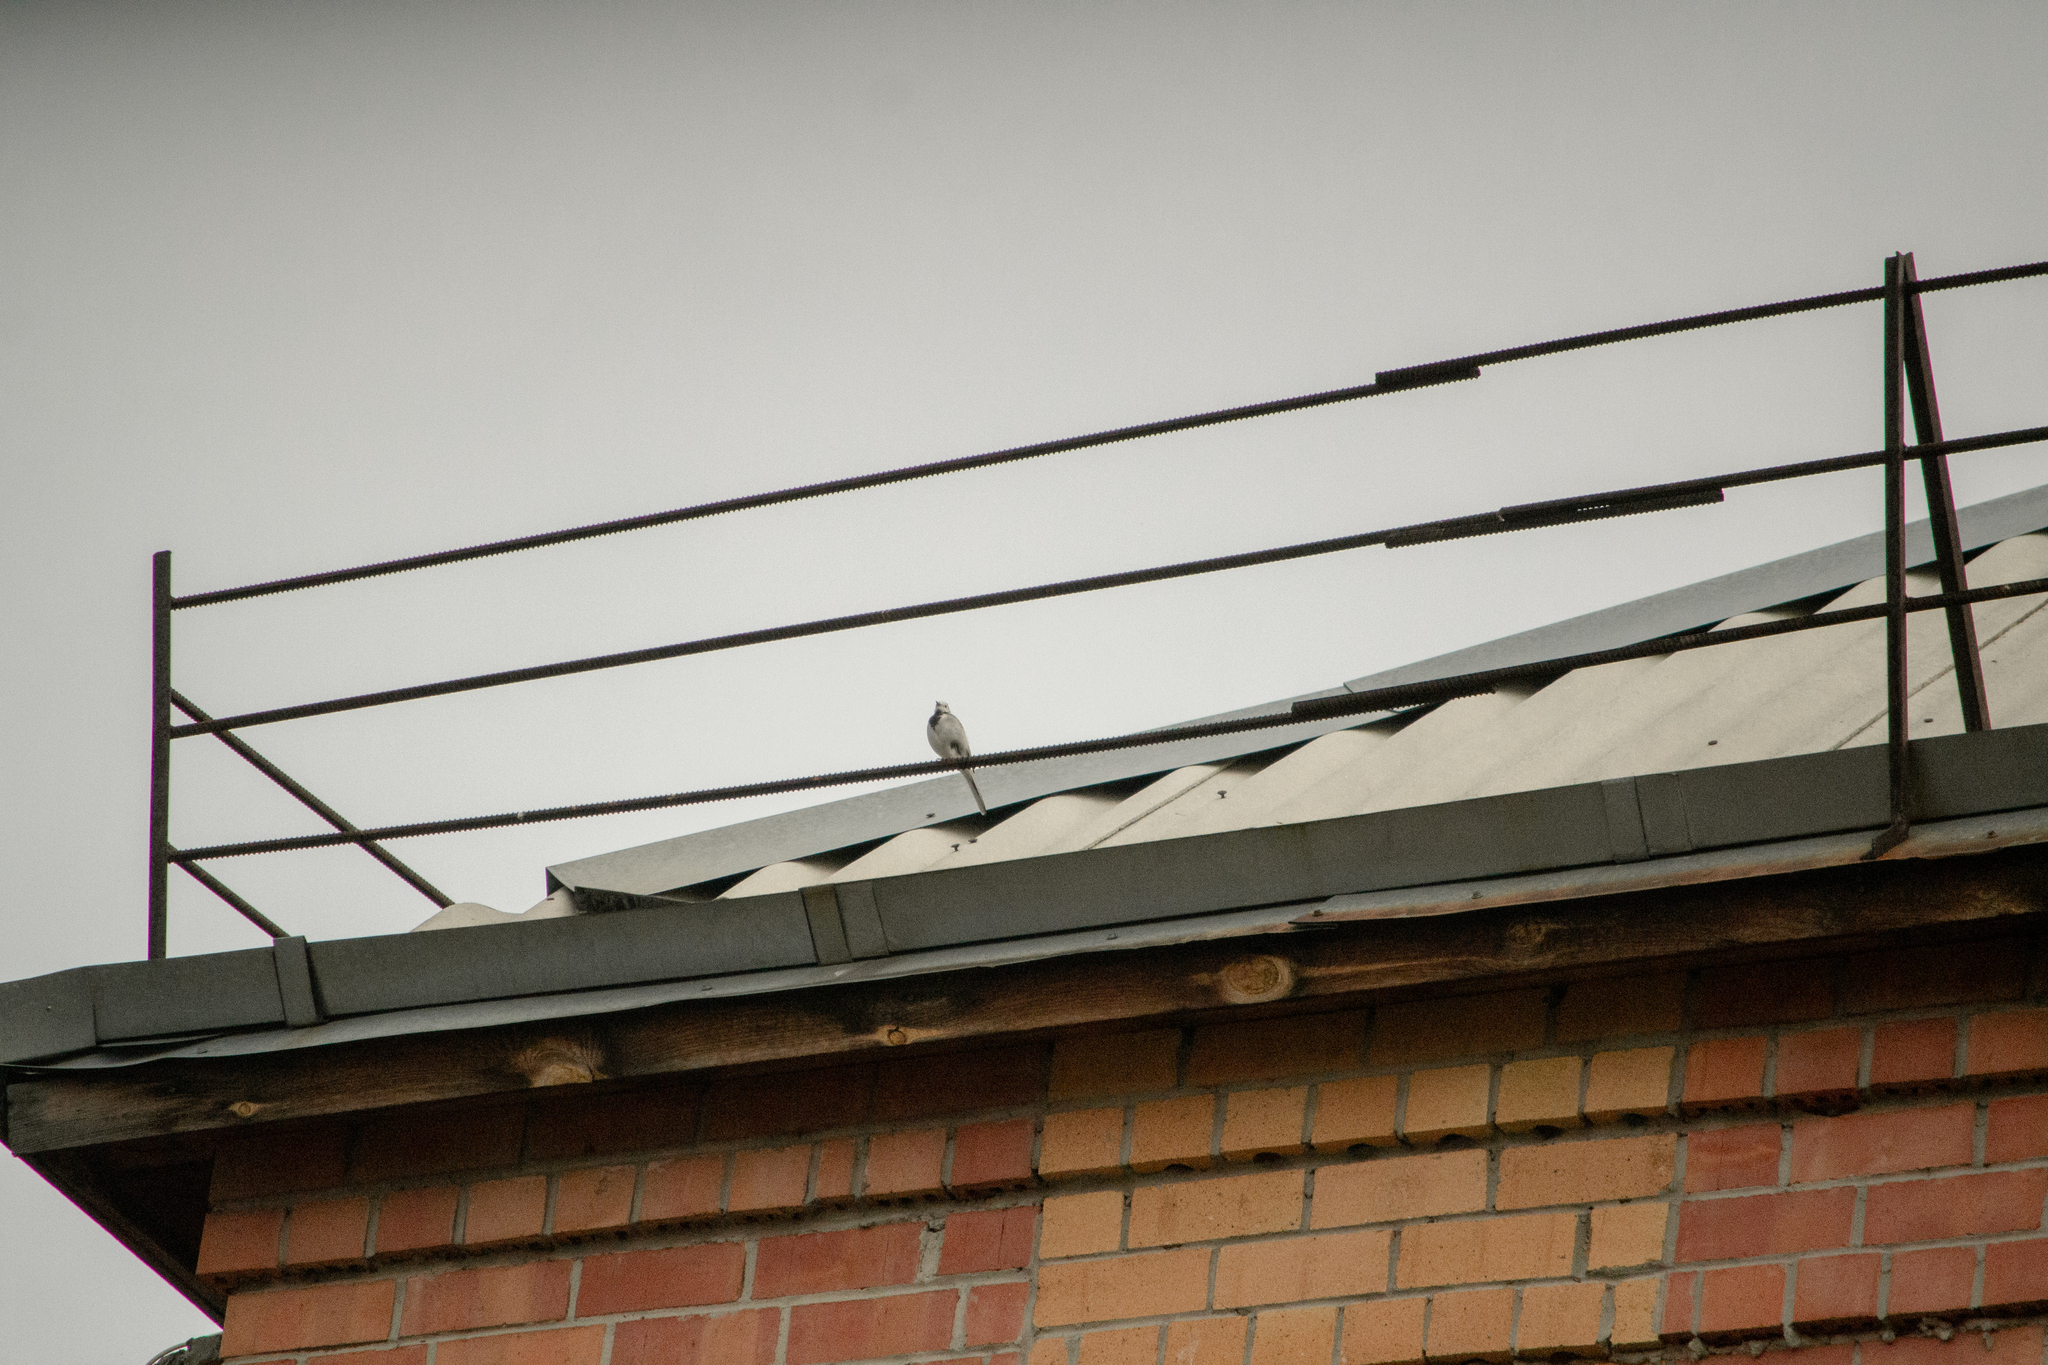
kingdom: Animalia
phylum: Chordata
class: Aves
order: Passeriformes
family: Motacillidae
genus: Motacilla
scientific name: Motacilla alba
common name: White wagtail
